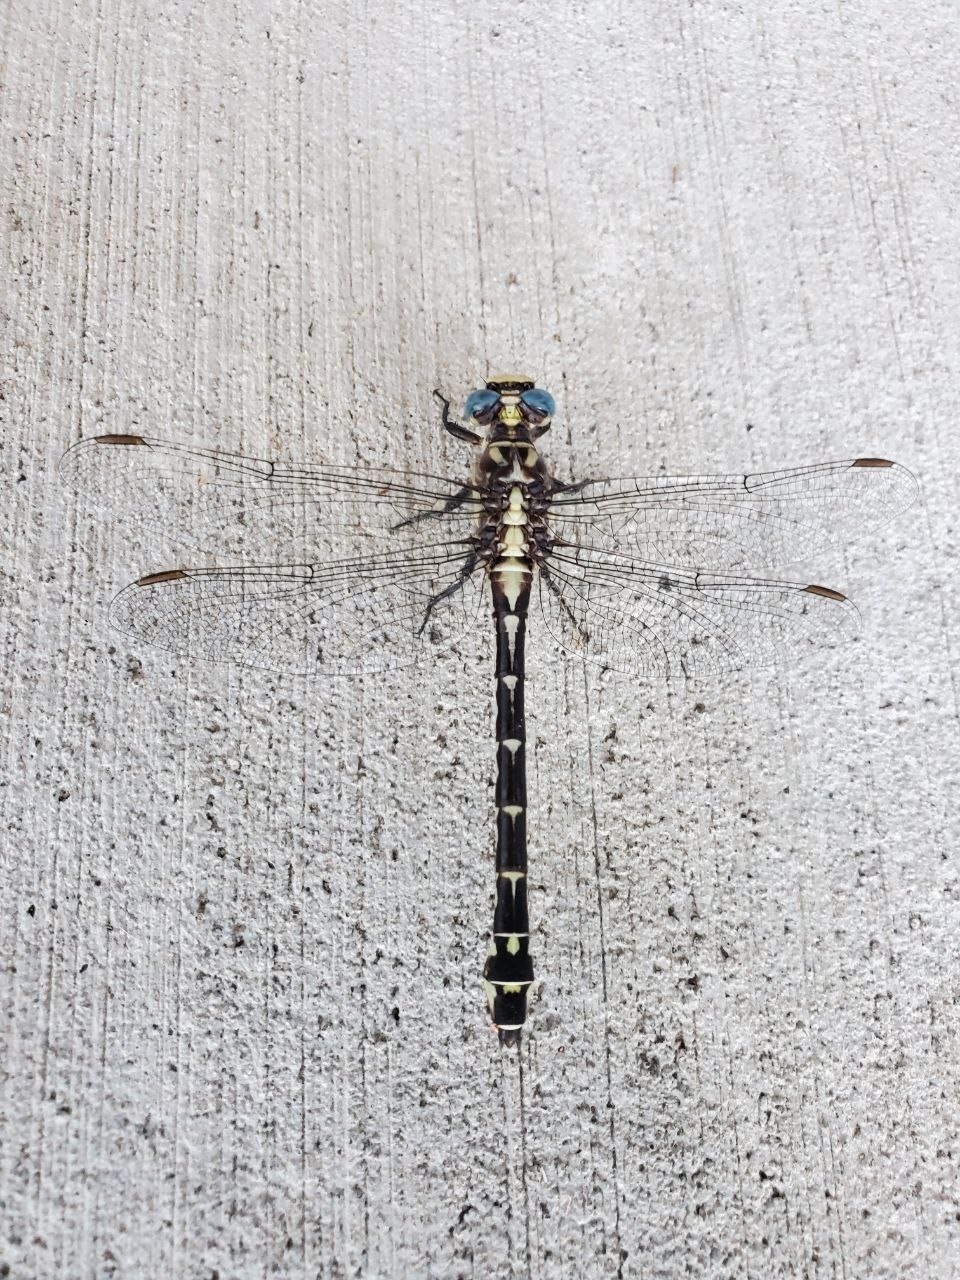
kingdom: Animalia
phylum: Arthropoda
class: Insecta
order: Odonata
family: Gomphidae
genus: Stylurus
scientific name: Stylurus olivaceus
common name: Olive clubtail
